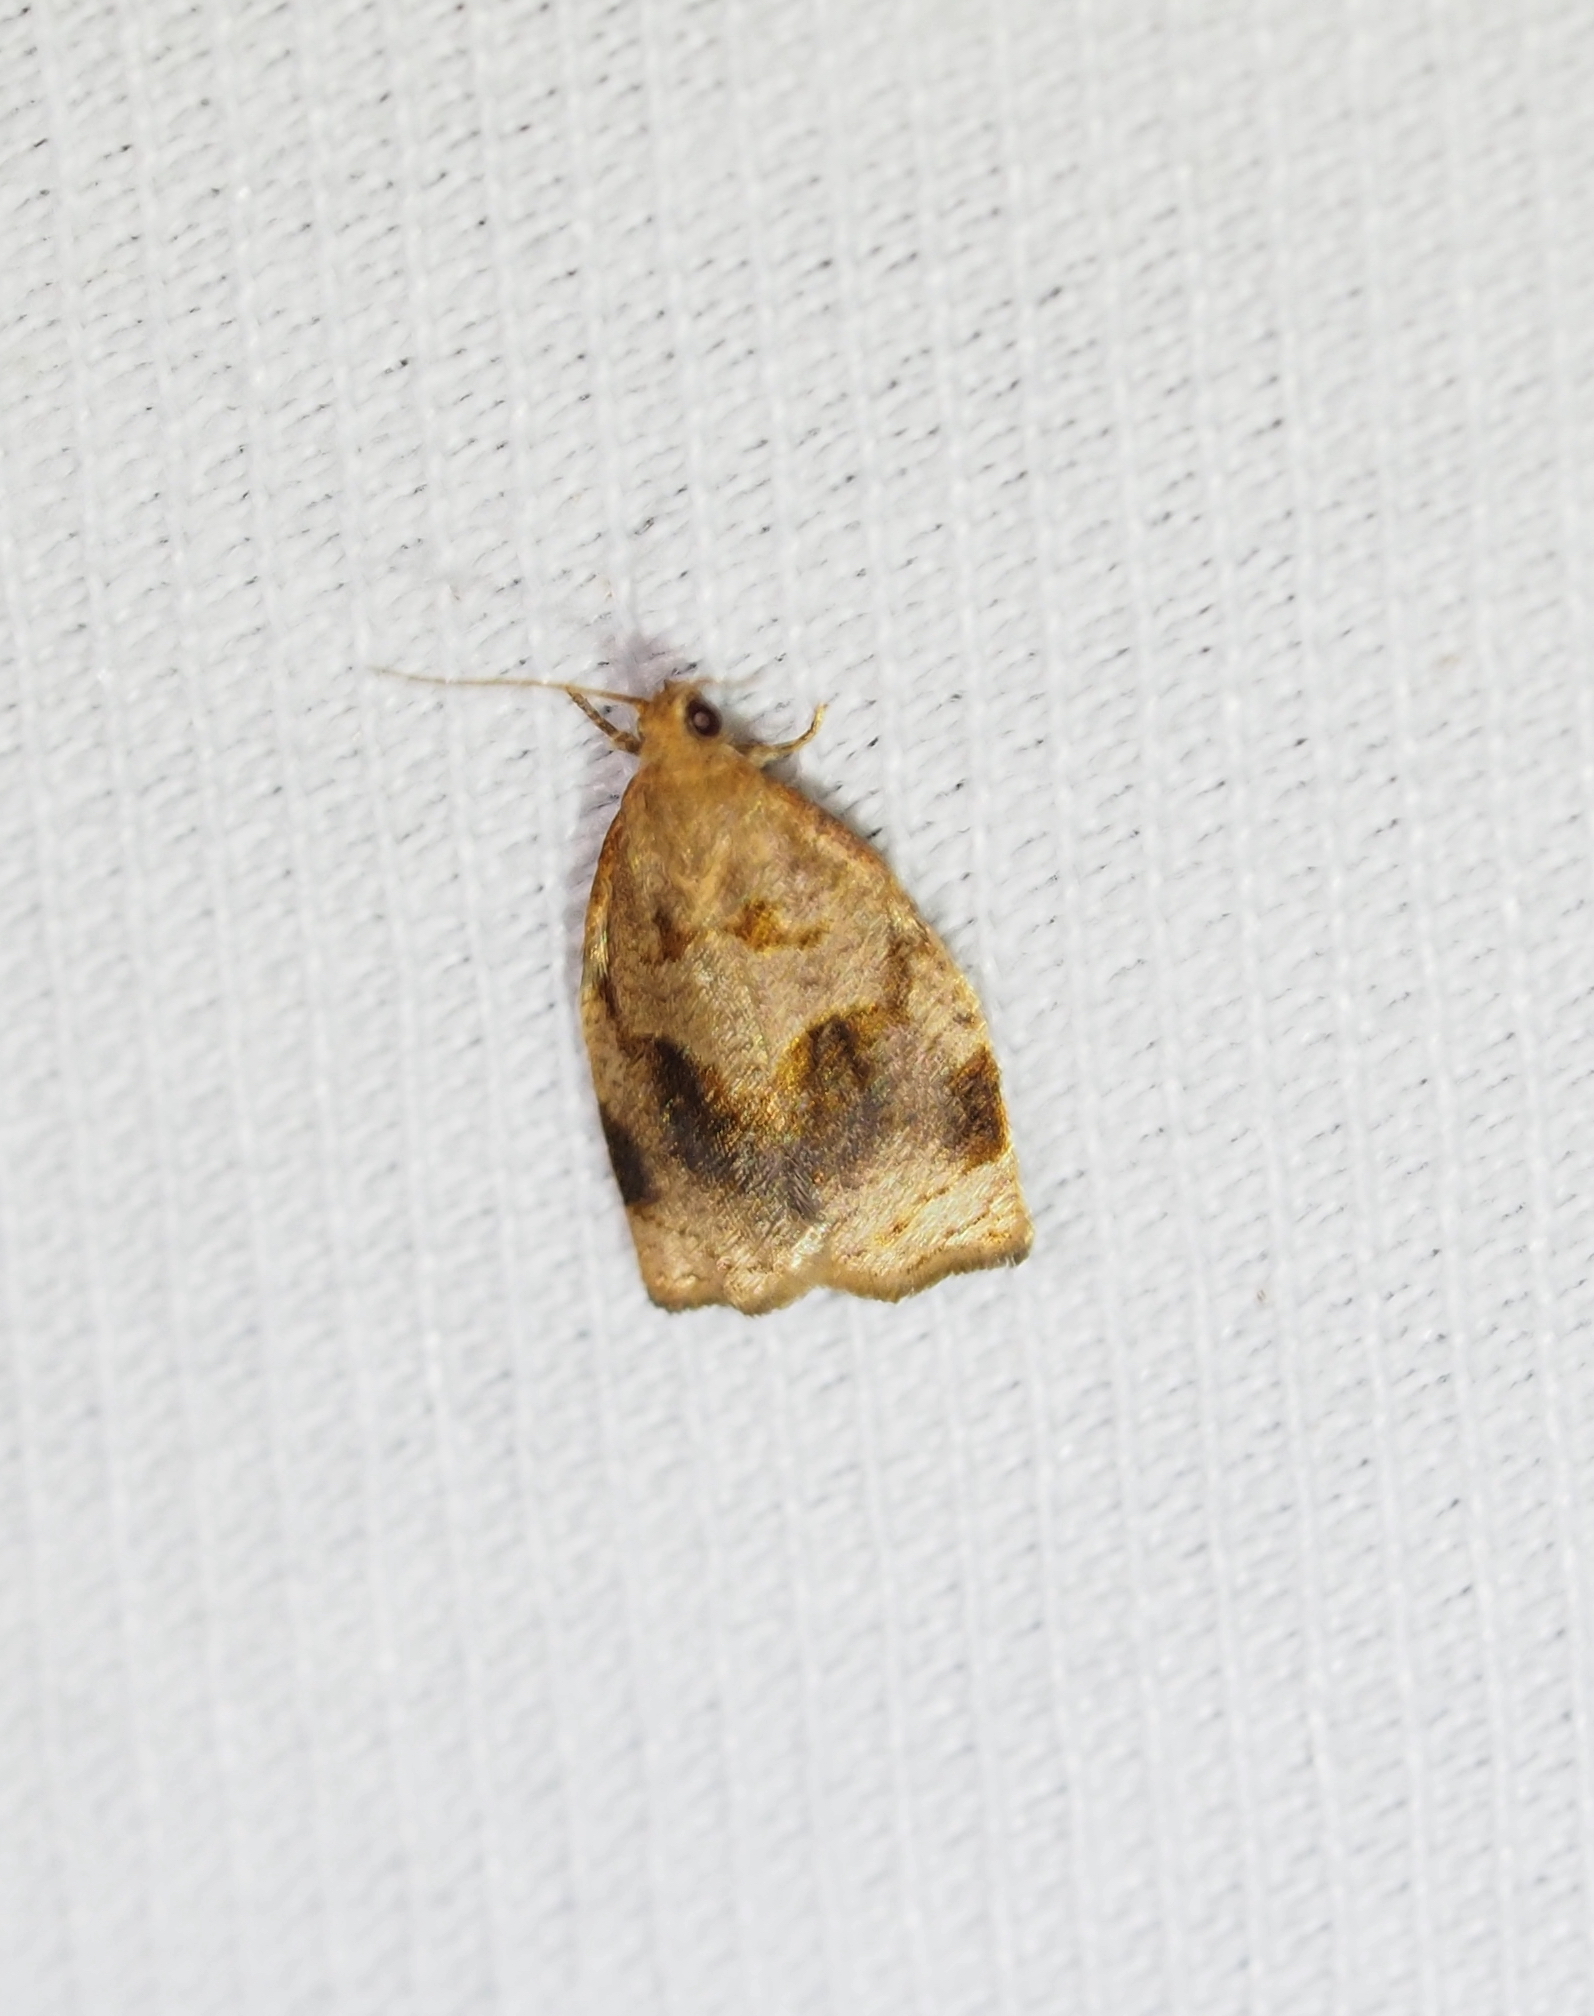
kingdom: Animalia
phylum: Arthropoda
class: Insecta
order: Lepidoptera
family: Tortricidae
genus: Archips
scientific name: Archips rosana
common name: Rose tortrix
